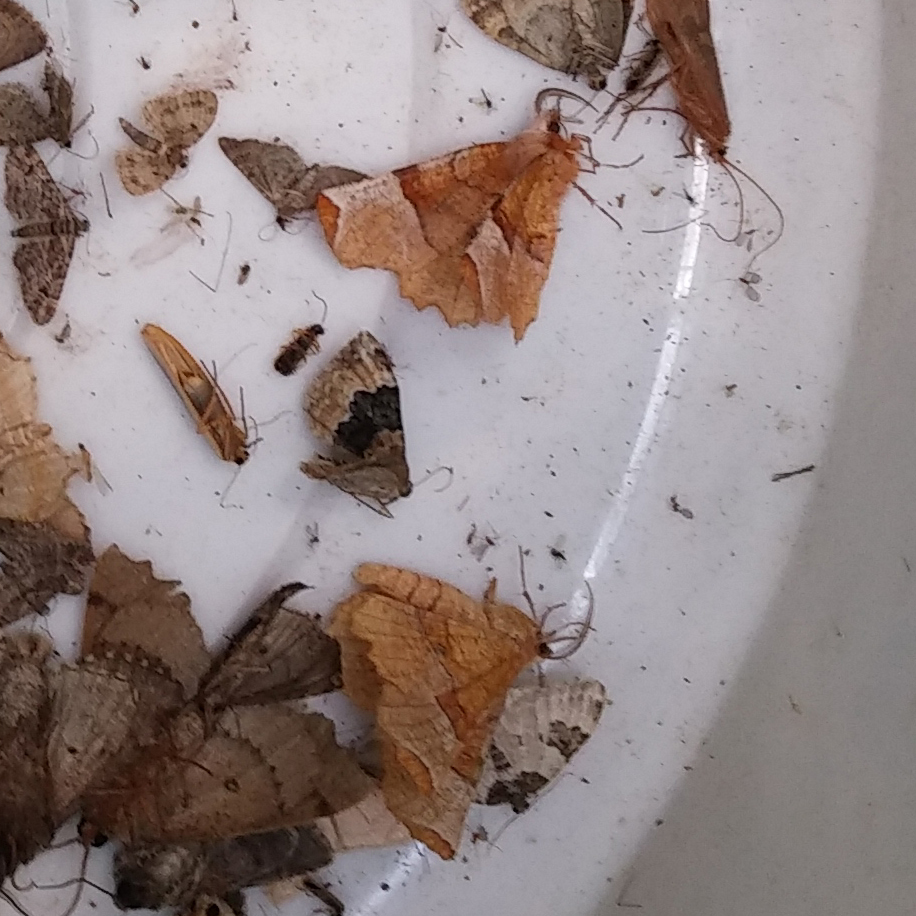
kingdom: Animalia
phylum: Arthropoda
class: Insecta
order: Lepidoptera
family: Geometridae
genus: Selenia
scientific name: Selenia lunularia
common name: Lunar thorn
